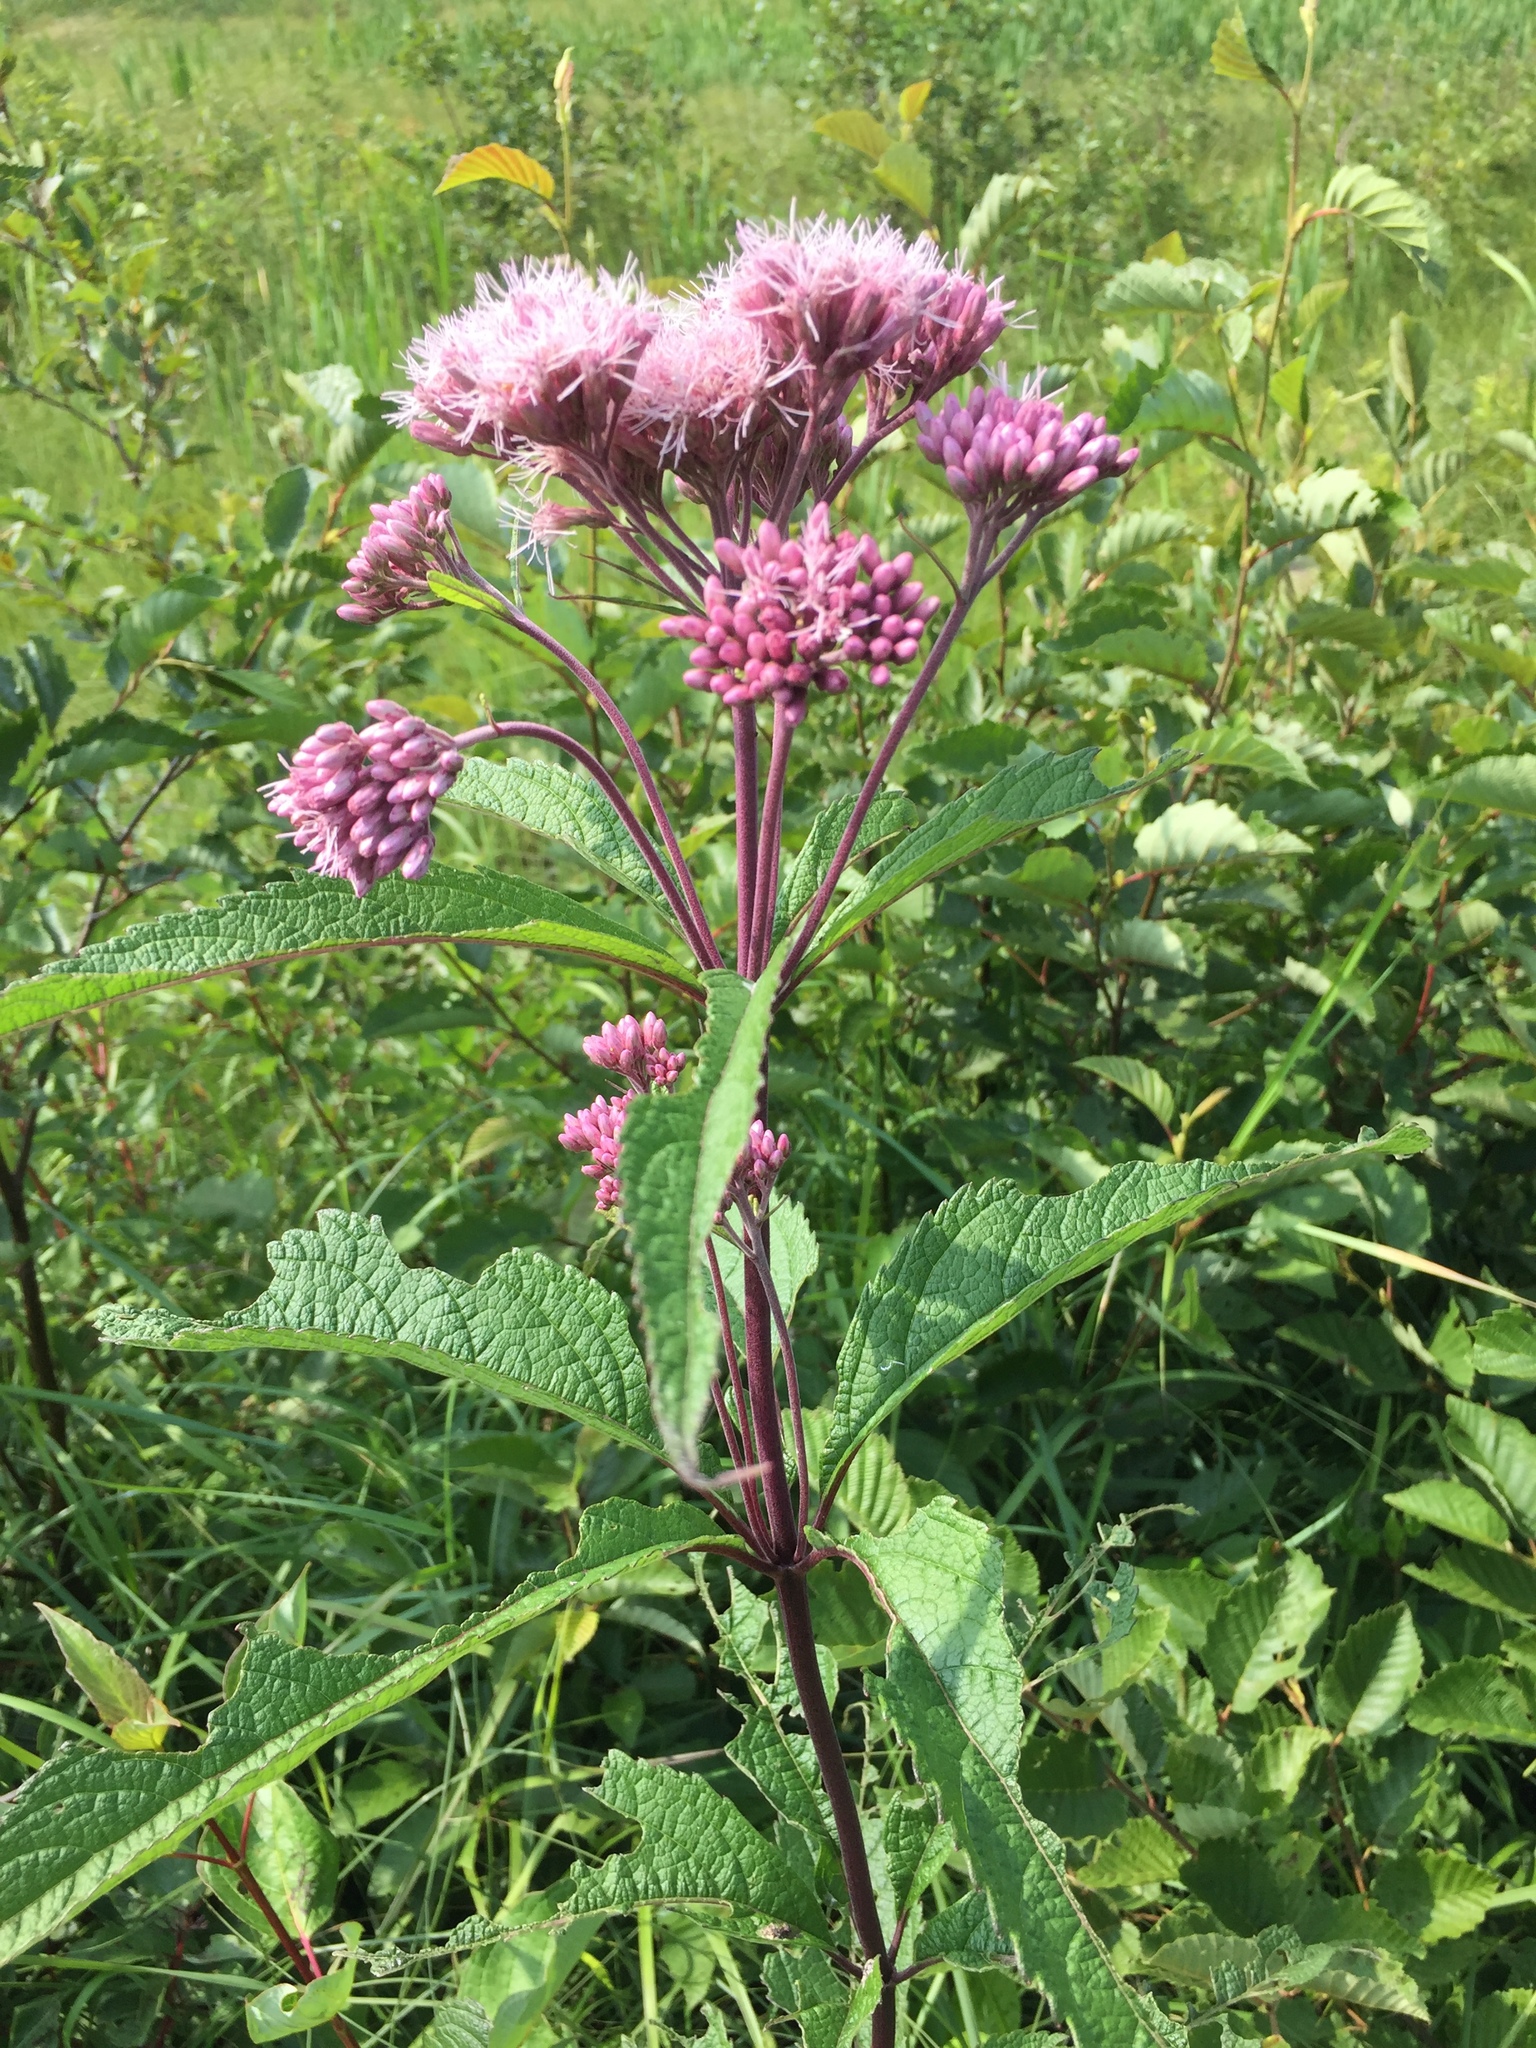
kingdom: Plantae
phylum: Tracheophyta
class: Magnoliopsida
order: Asterales
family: Asteraceae
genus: Eutrochium
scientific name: Eutrochium maculatum
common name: Spotted joe pye weed
